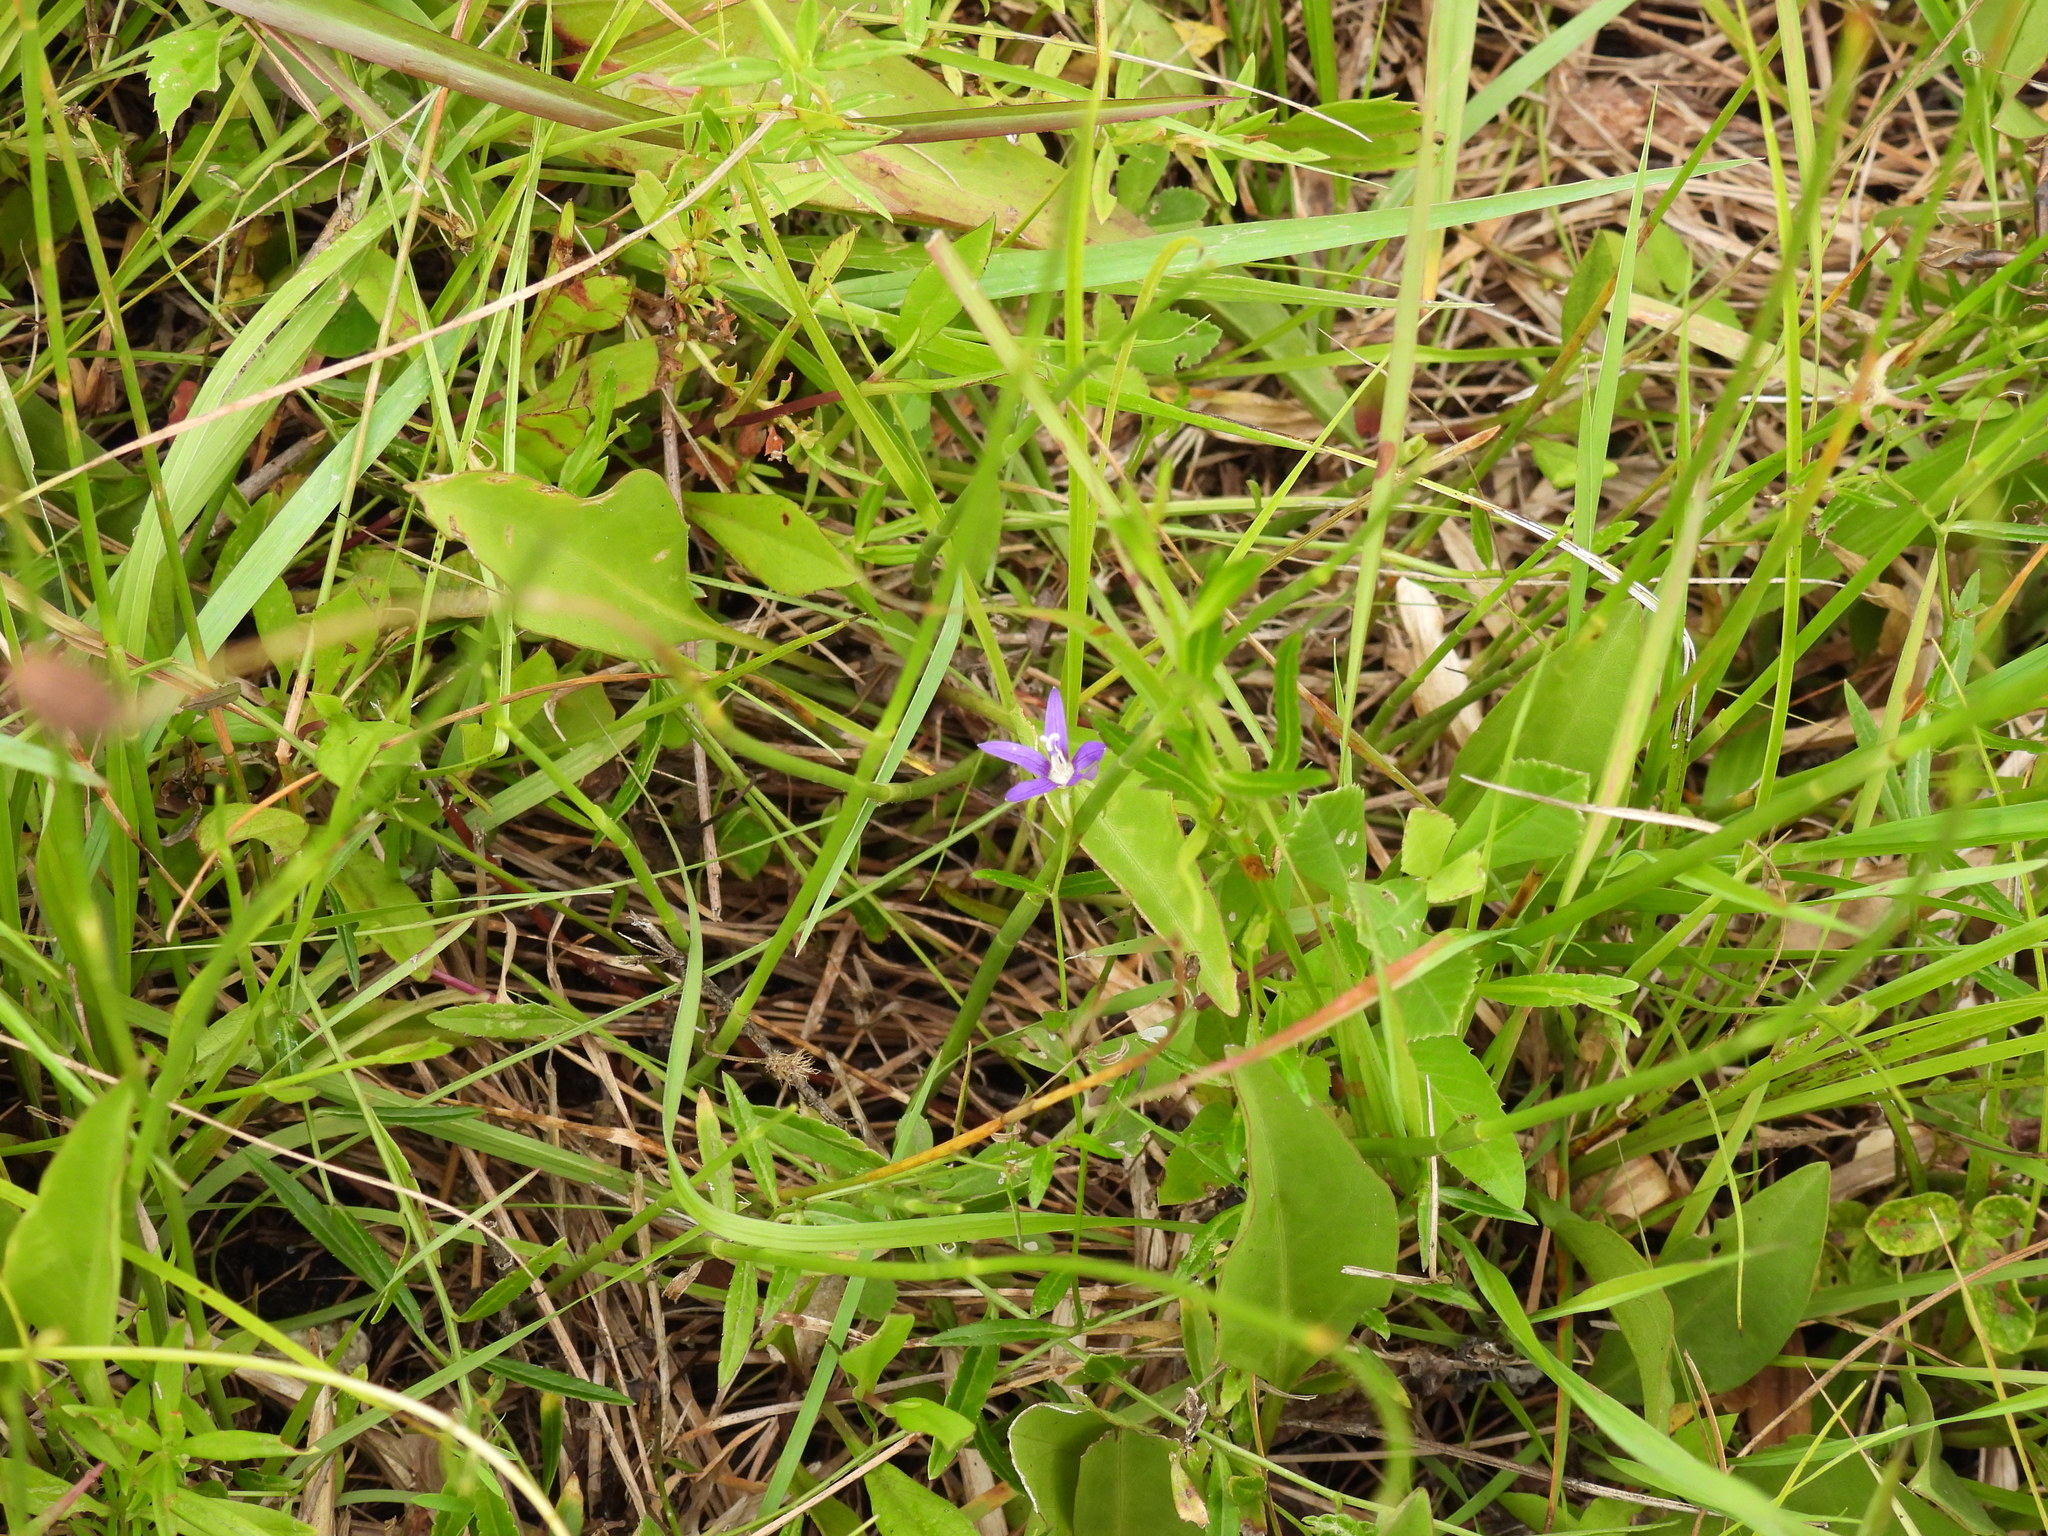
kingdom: Plantae
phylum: Tracheophyta
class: Magnoliopsida
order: Asterales
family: Campanulaceae
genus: Rotanthella
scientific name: Rotanthella floridana
